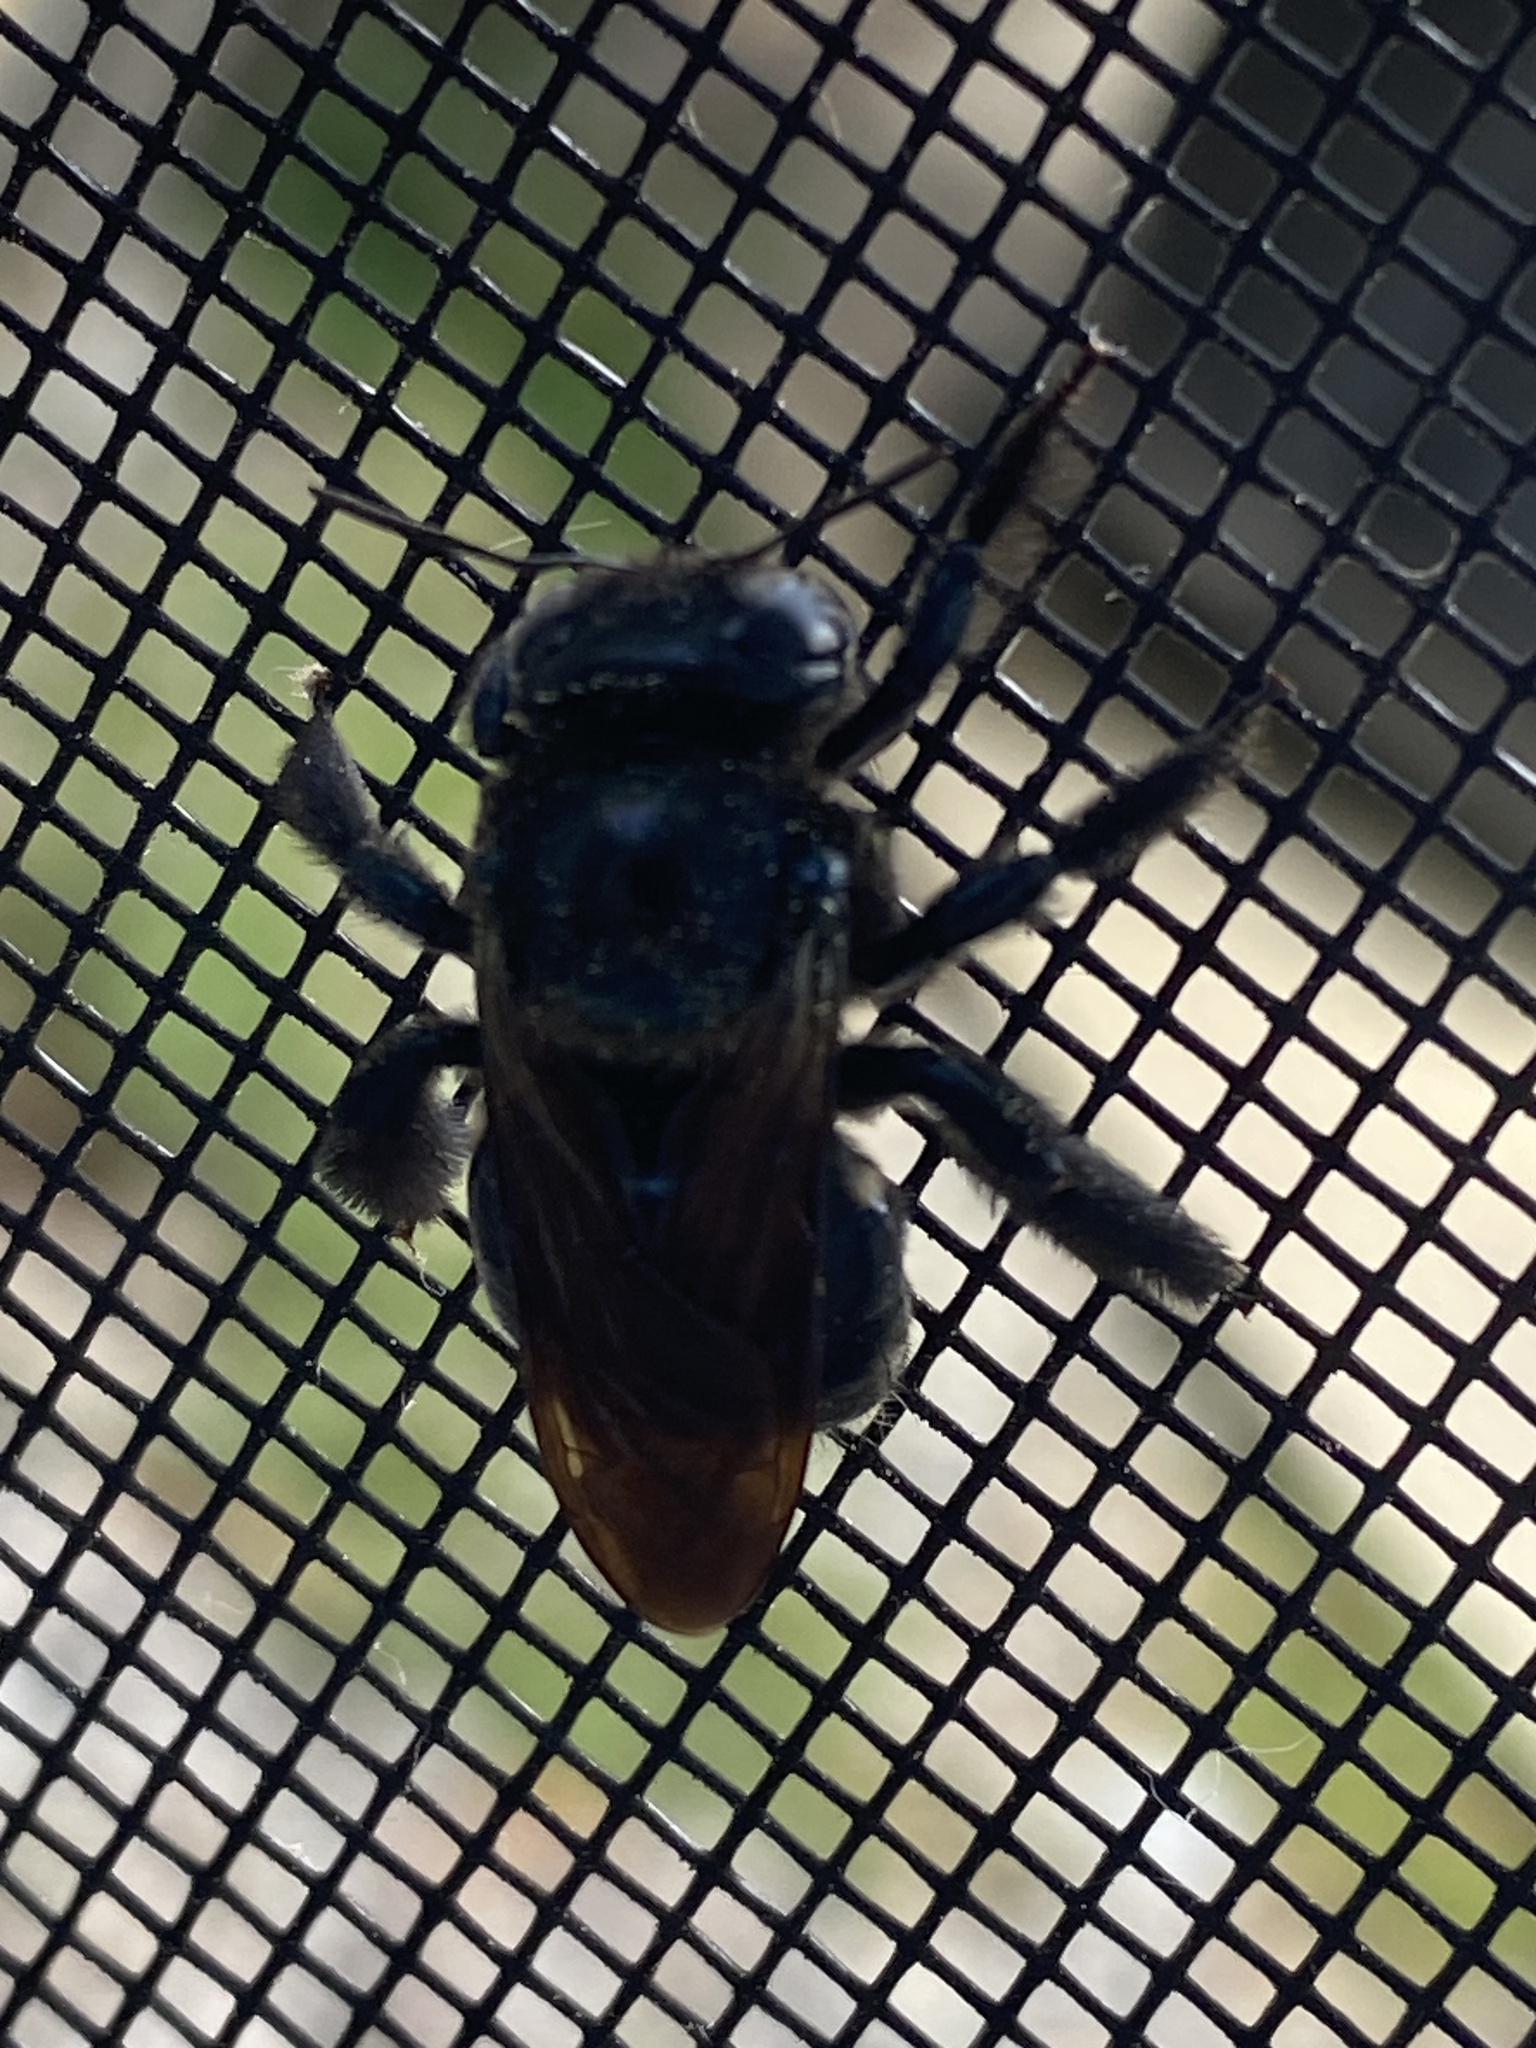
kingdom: Animalia
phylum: Arthropoda
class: Insecta
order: Hymenoptera
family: Apidae
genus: Xylocopa
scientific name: Xylocopa micans
